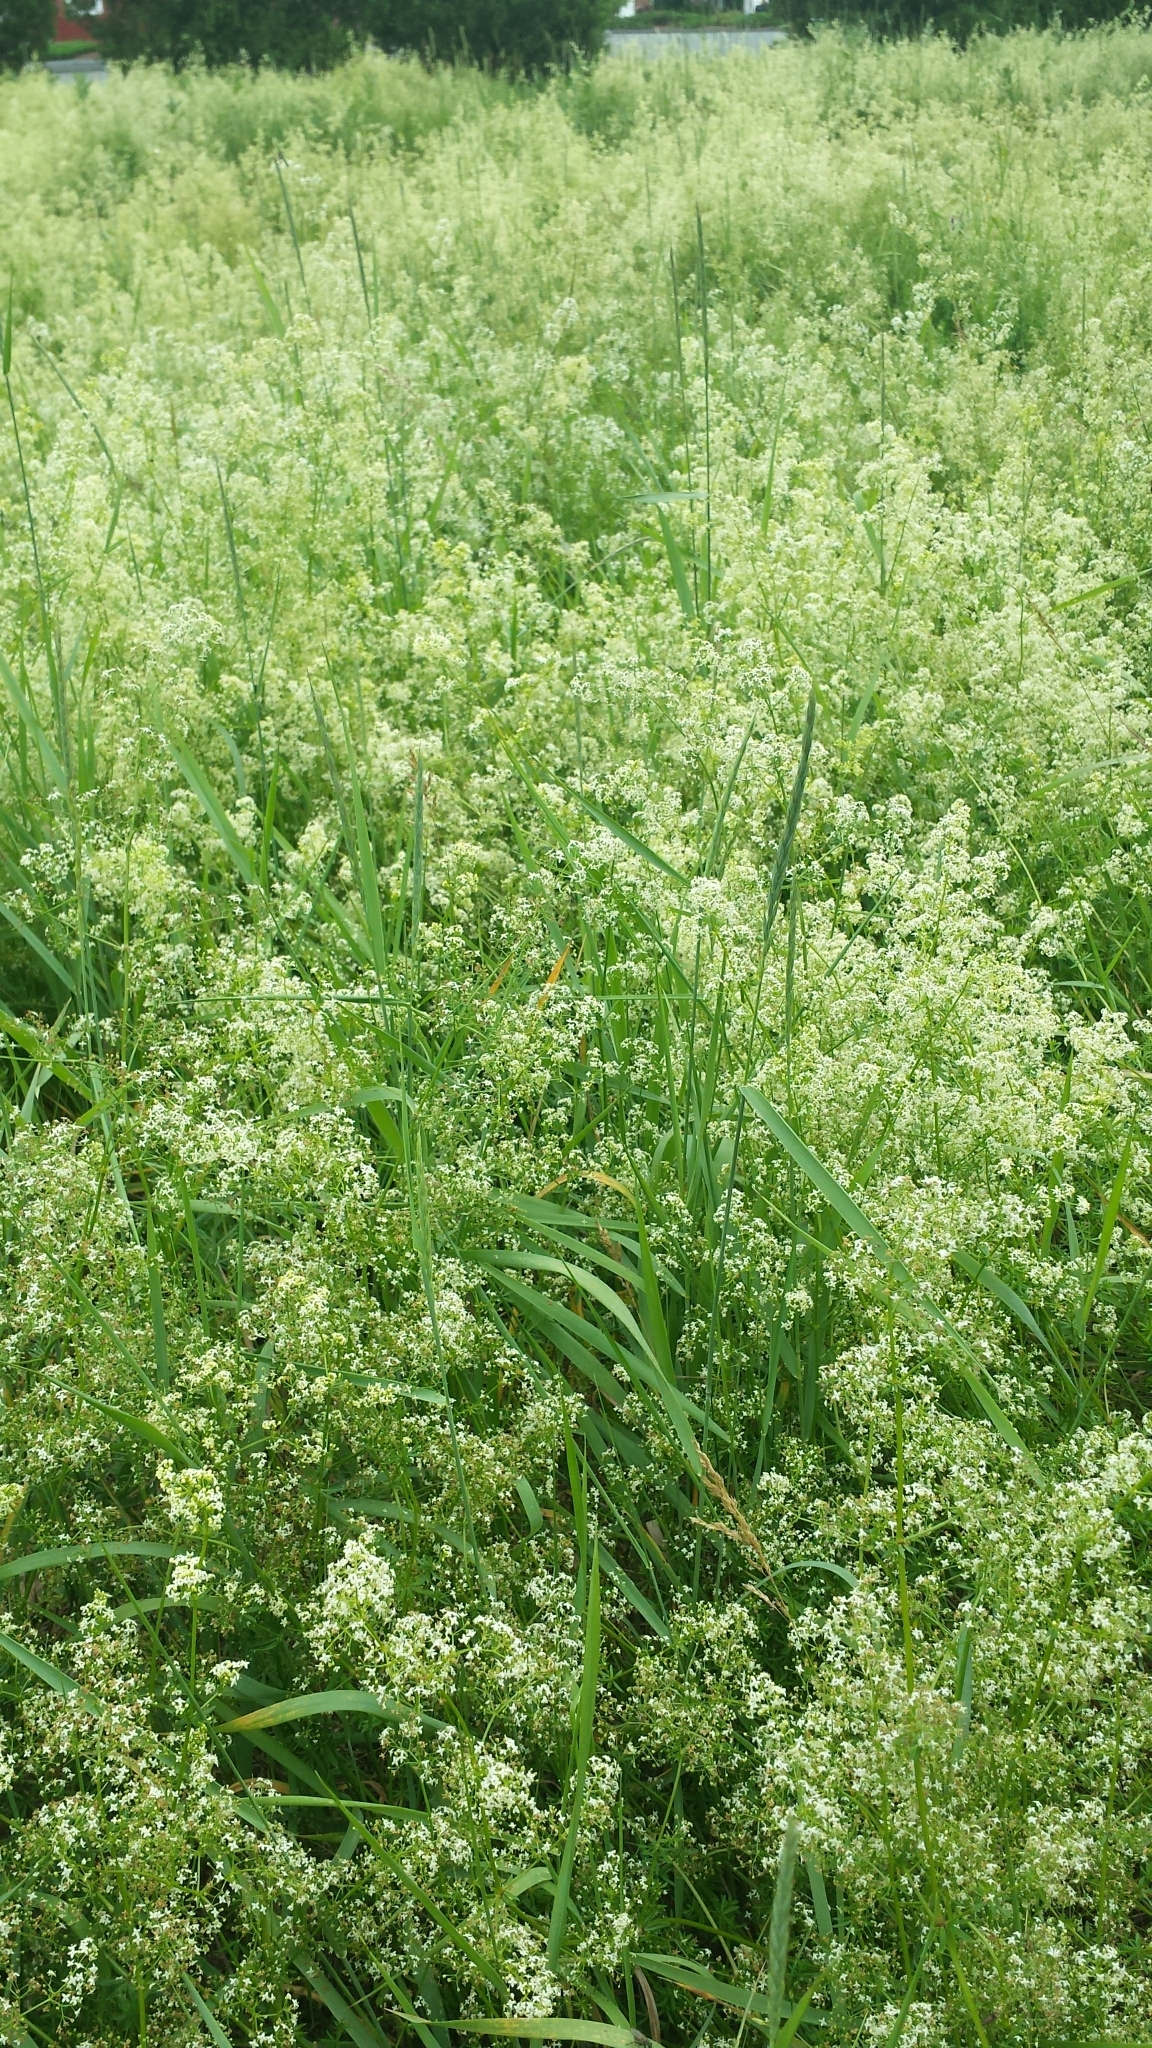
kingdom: Plantae
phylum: Tracheophyta
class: Magnoliopsida
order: Gentianales
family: Rubiaceae
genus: Galium
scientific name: Galium mollugo
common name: Hedge bedstraw
